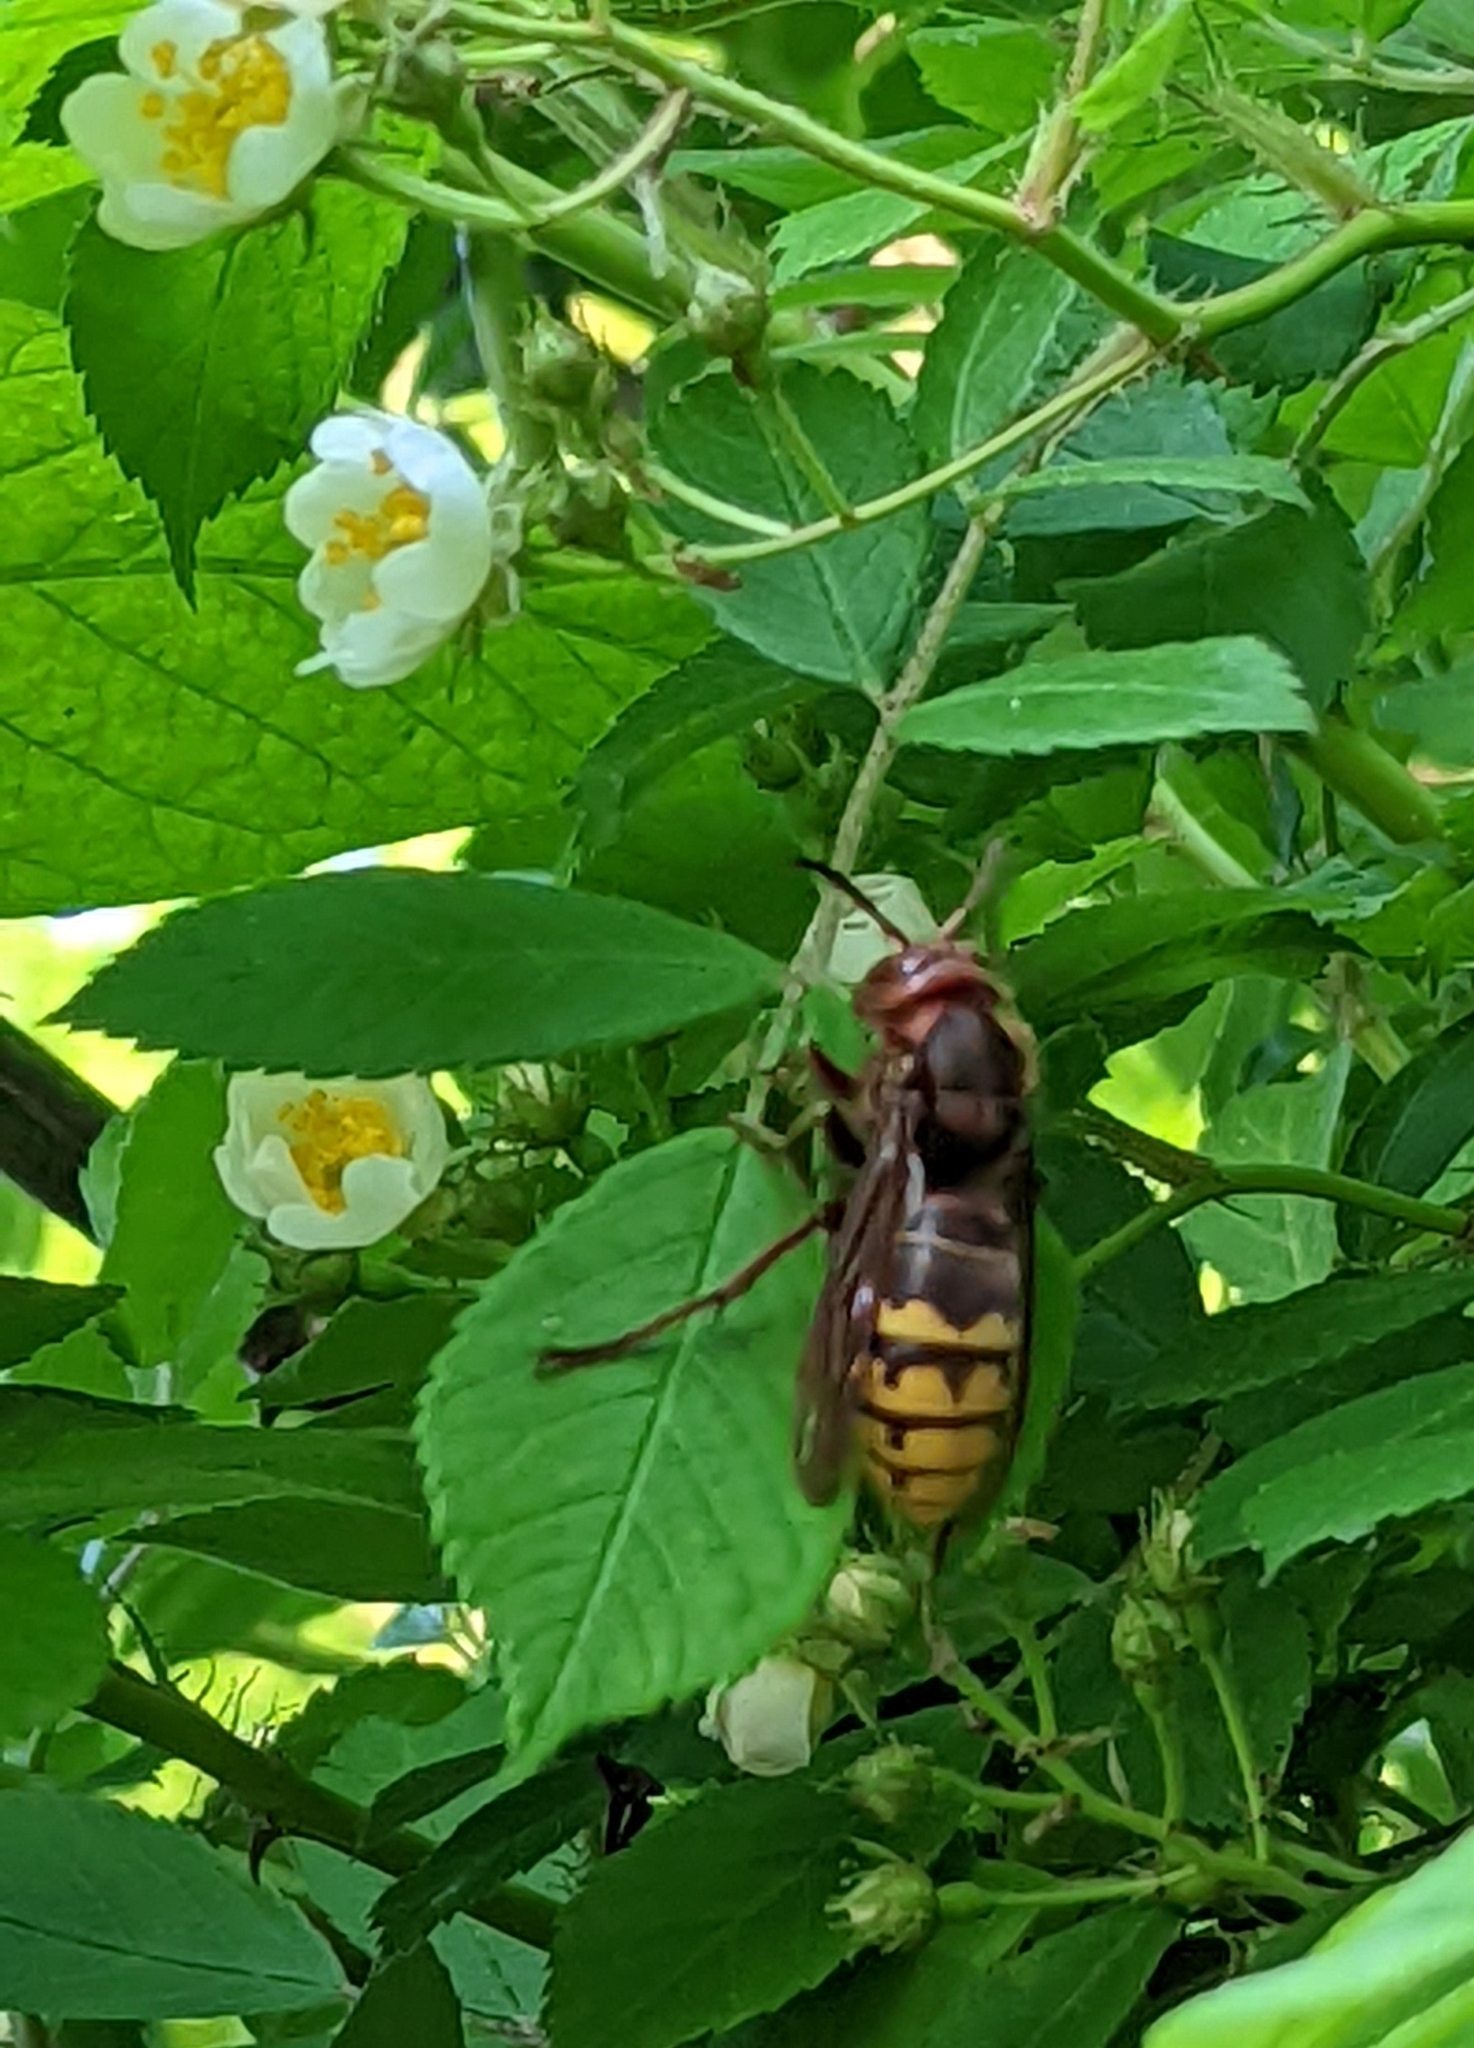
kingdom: Animalia
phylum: Arthropoda
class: Insecta
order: Hymenoptera
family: Vespidae
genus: Vespa
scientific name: Vespa crabro
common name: Hornet
